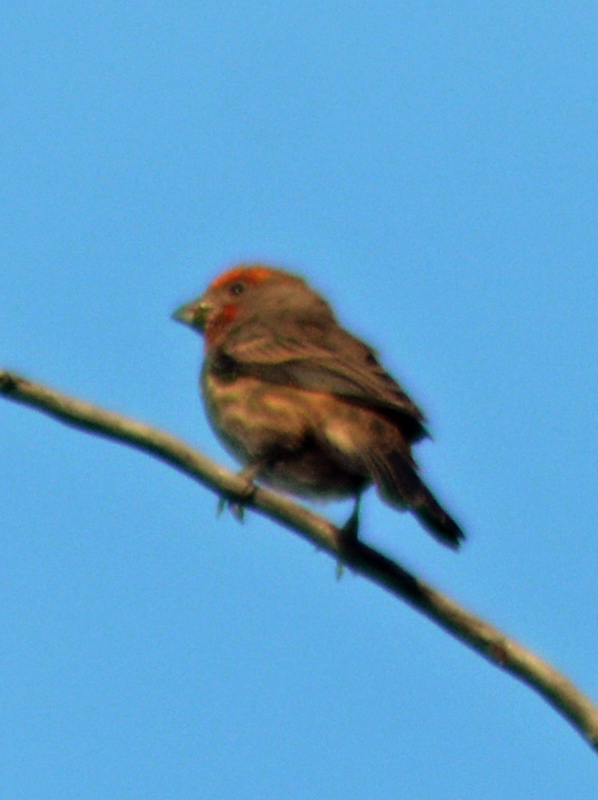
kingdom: Animalia
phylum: Chordata
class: Aves
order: Passeriformes
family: Fringillidae
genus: Haemorhous
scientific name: Haemorhous mexicanus
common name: House finch
